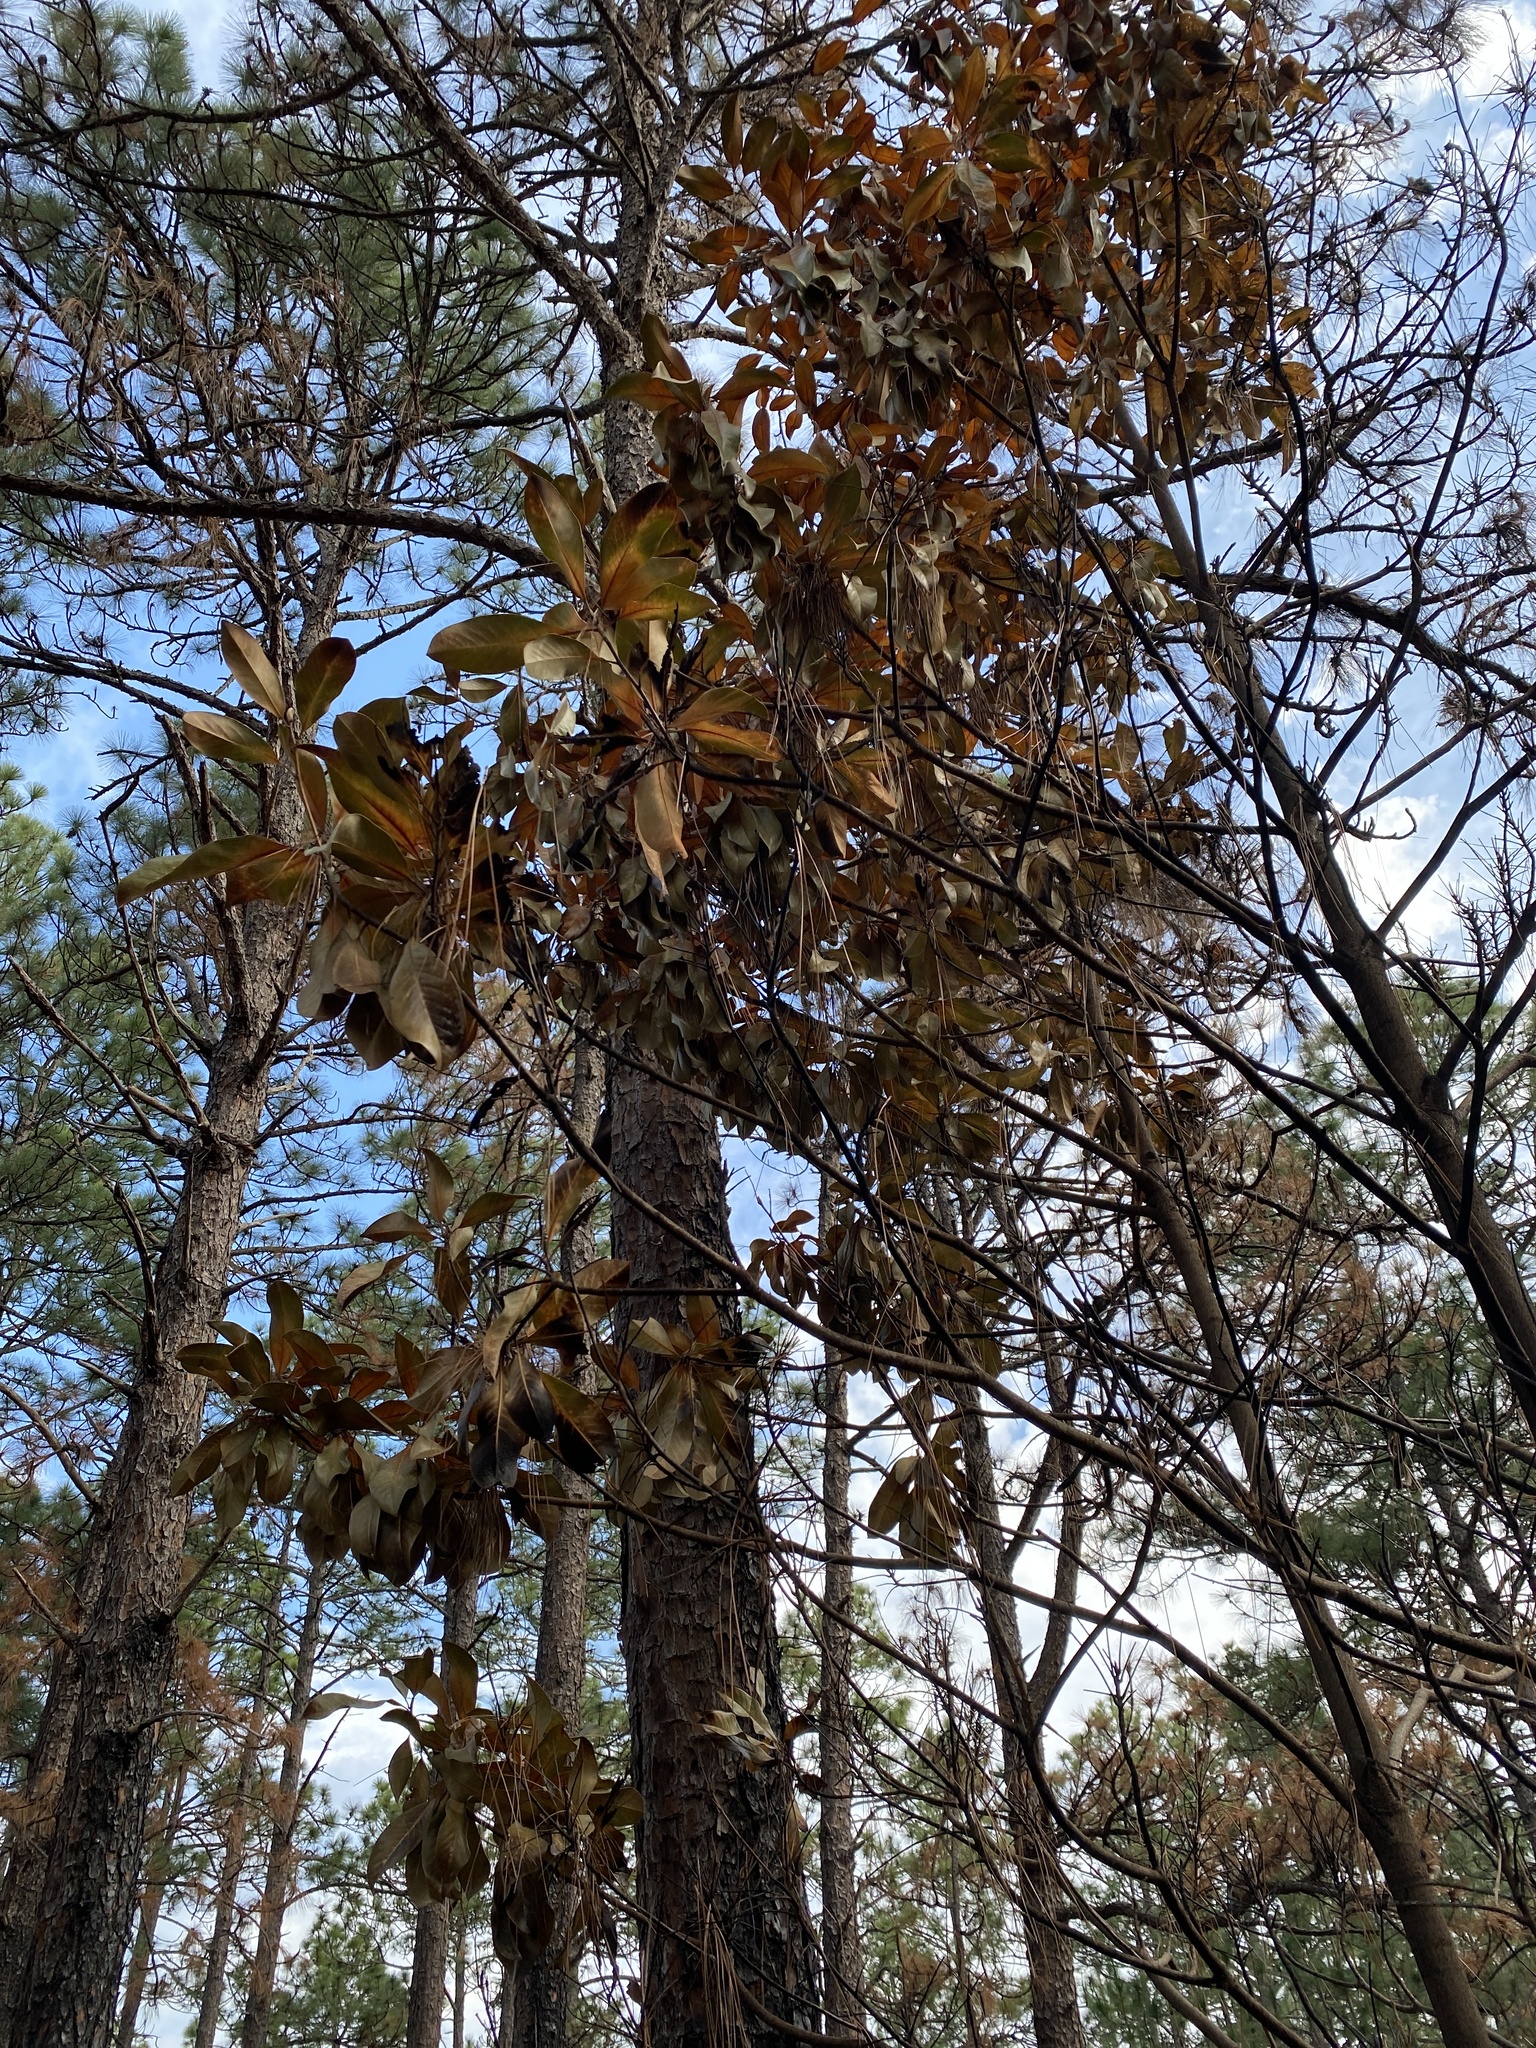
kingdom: Plantae
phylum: Tracheophyta
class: Magnoliopsida
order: Magnoliales
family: Magnoliaceae
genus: Magnolia
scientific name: Magnolia grandiflora
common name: Southern magnolia
